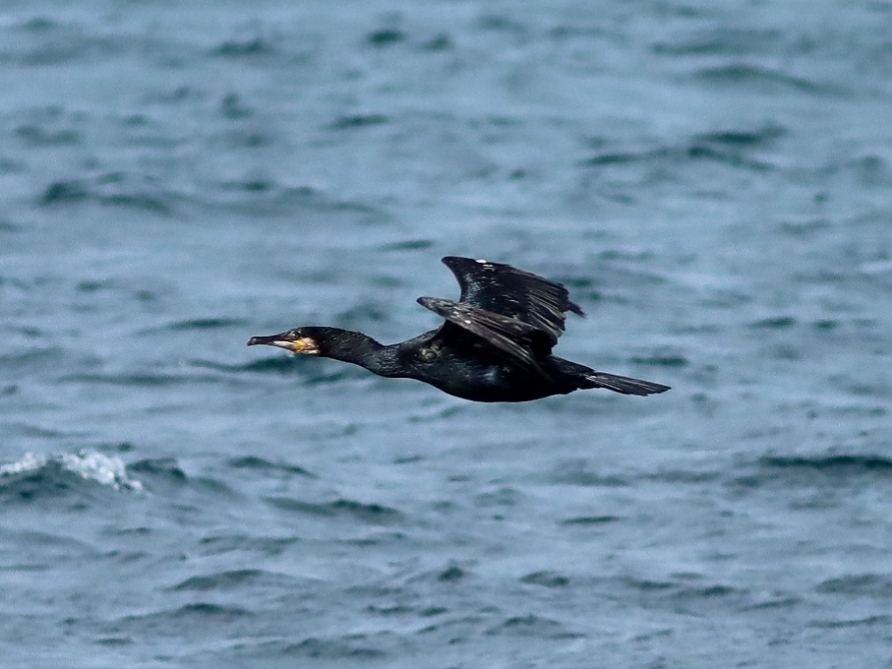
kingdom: Animalia
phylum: Chordata
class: Aves
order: Suliformes
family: Phalacrocoracidae
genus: Phalacrocorax
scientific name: Phalacrocorax carbo
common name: Great cormorant
